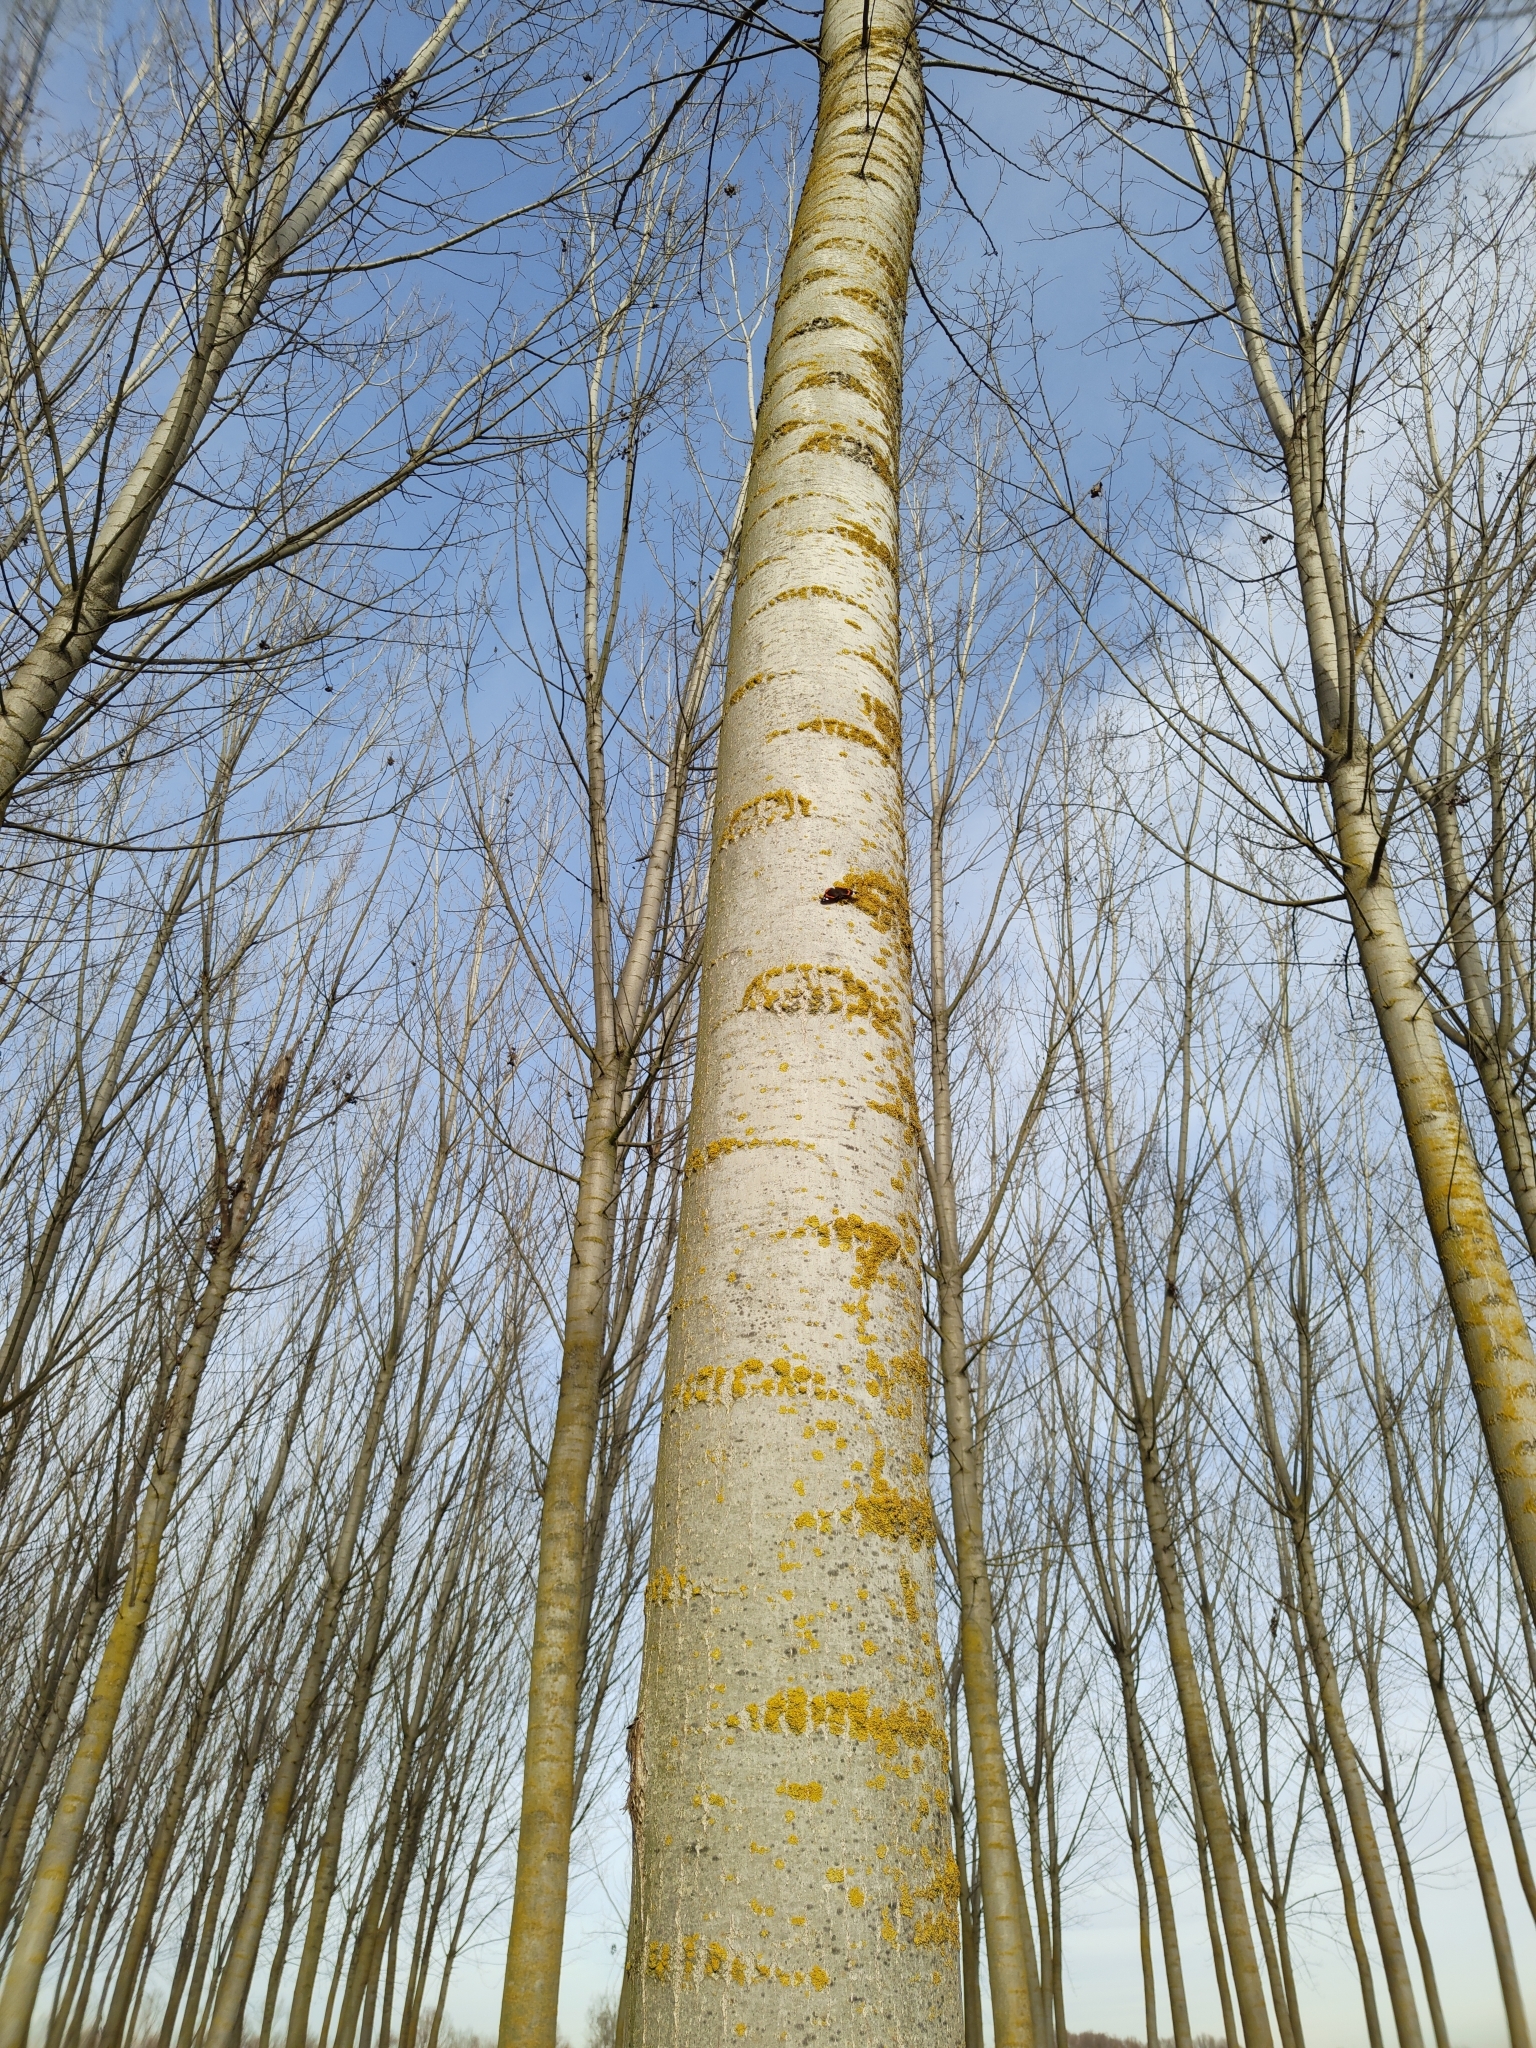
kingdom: Animalia
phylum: Arthropoda
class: Insecta
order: Lepidoptera
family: Nymphalidae
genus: Vanessa
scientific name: Vanessa atalanta
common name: Red admiral
